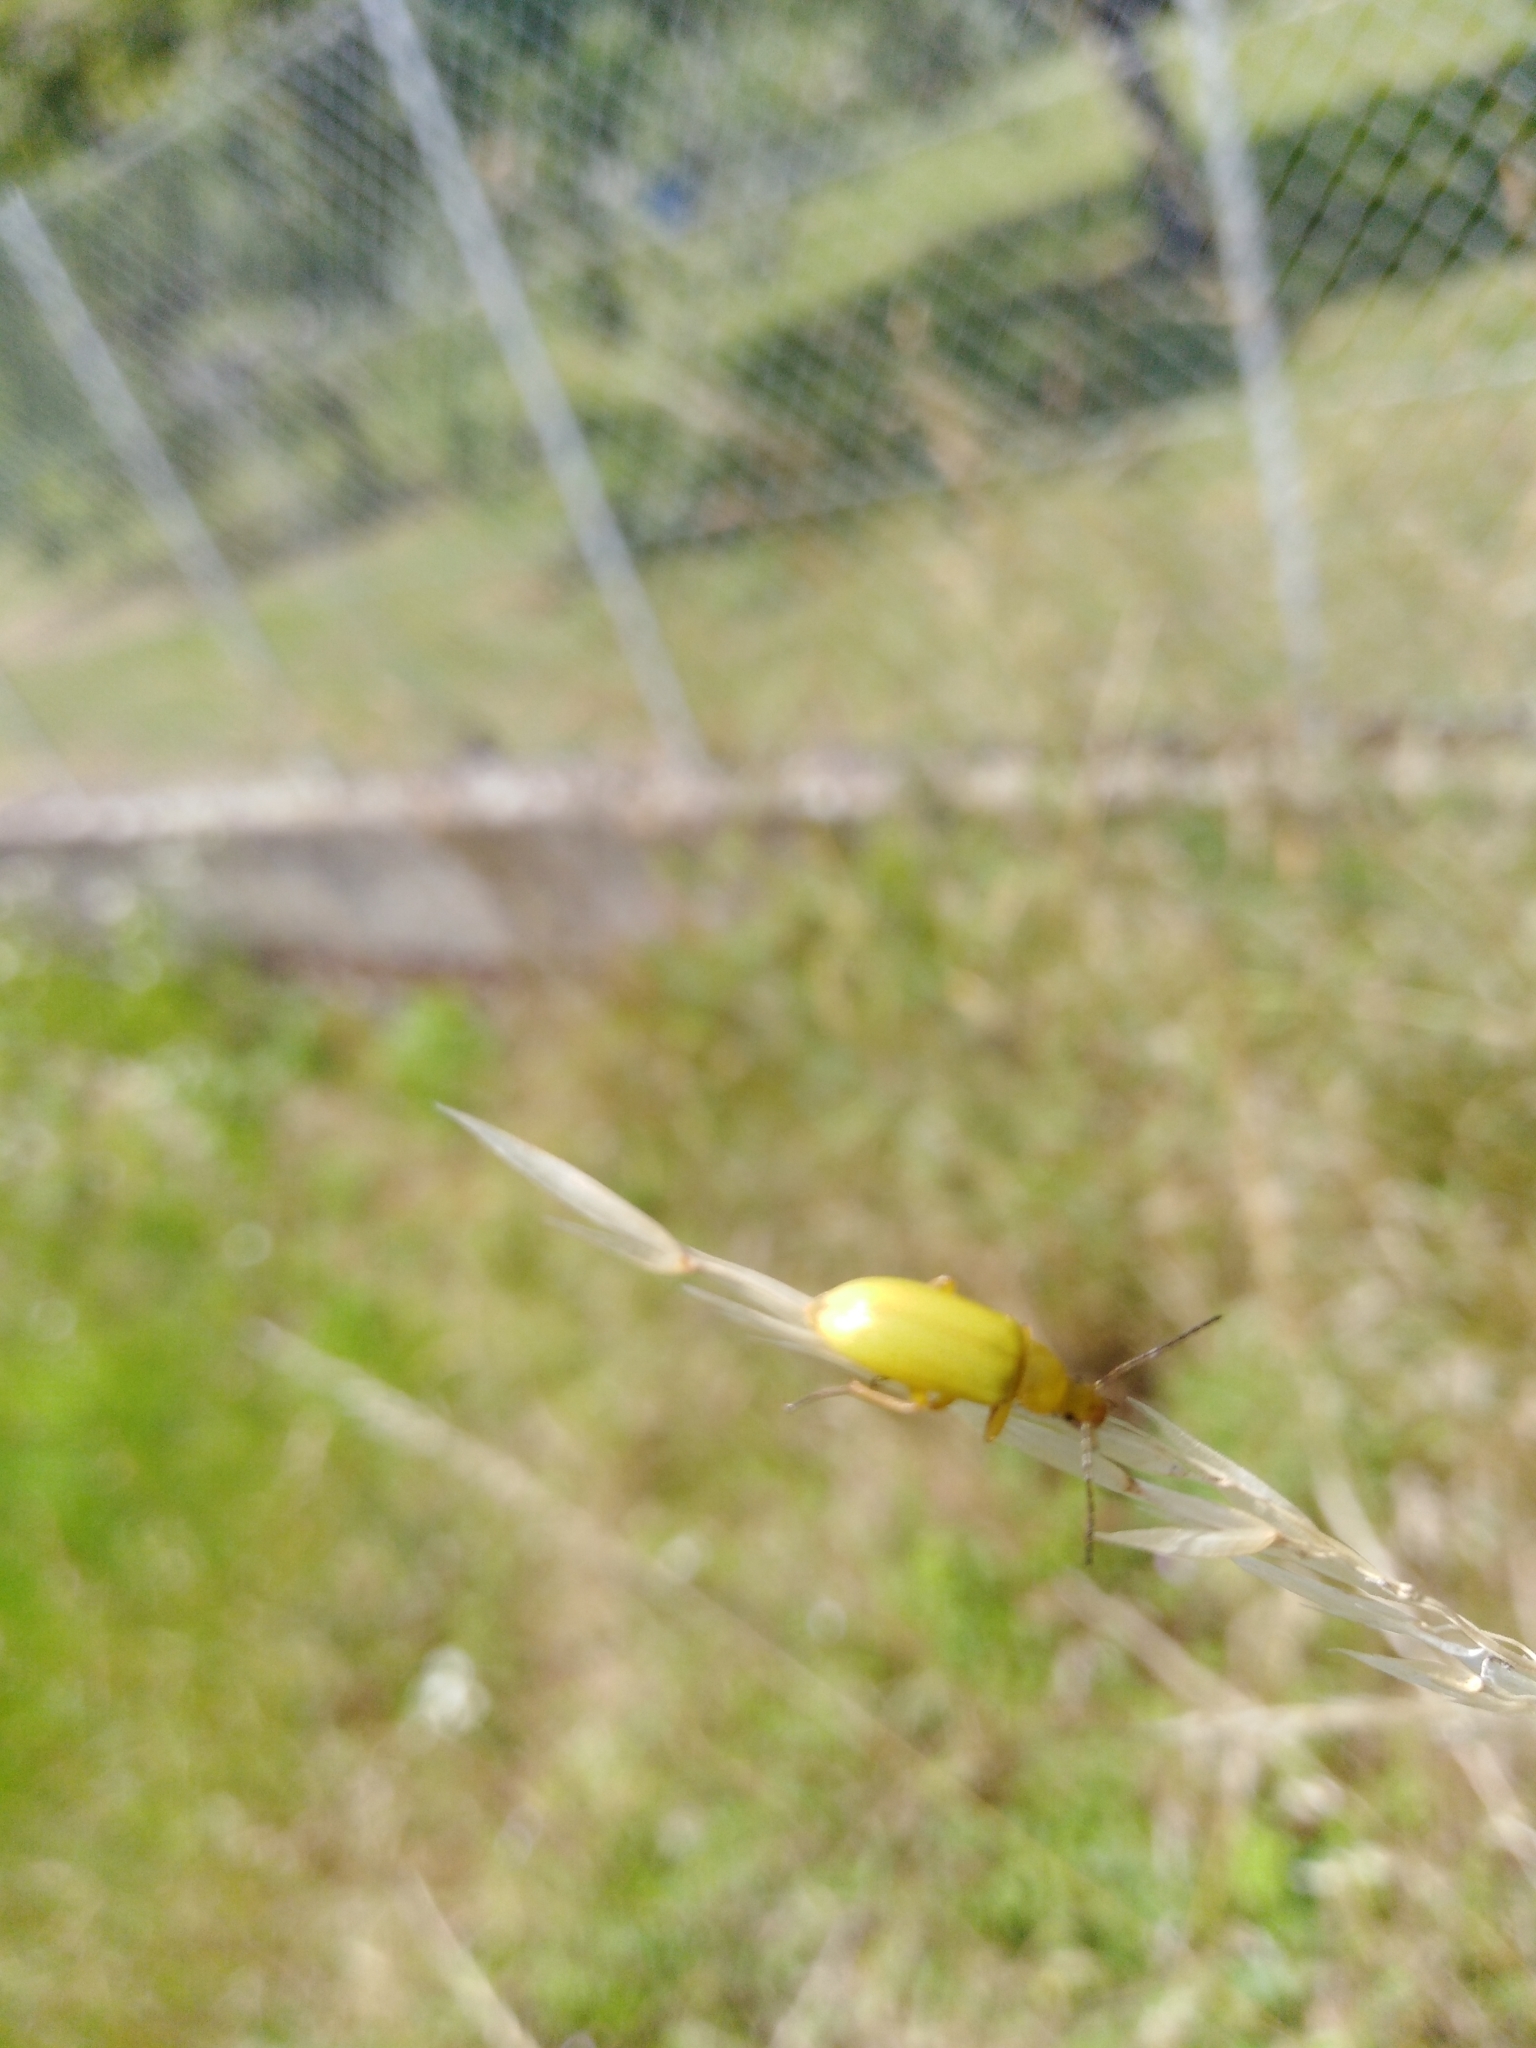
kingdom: Animalia
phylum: Arthropoda
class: Insecta
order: Coleoptera
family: Tenebrionidae
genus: Cteniopus
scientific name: Cteniopus sulphureus
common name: Sulphur beetle
